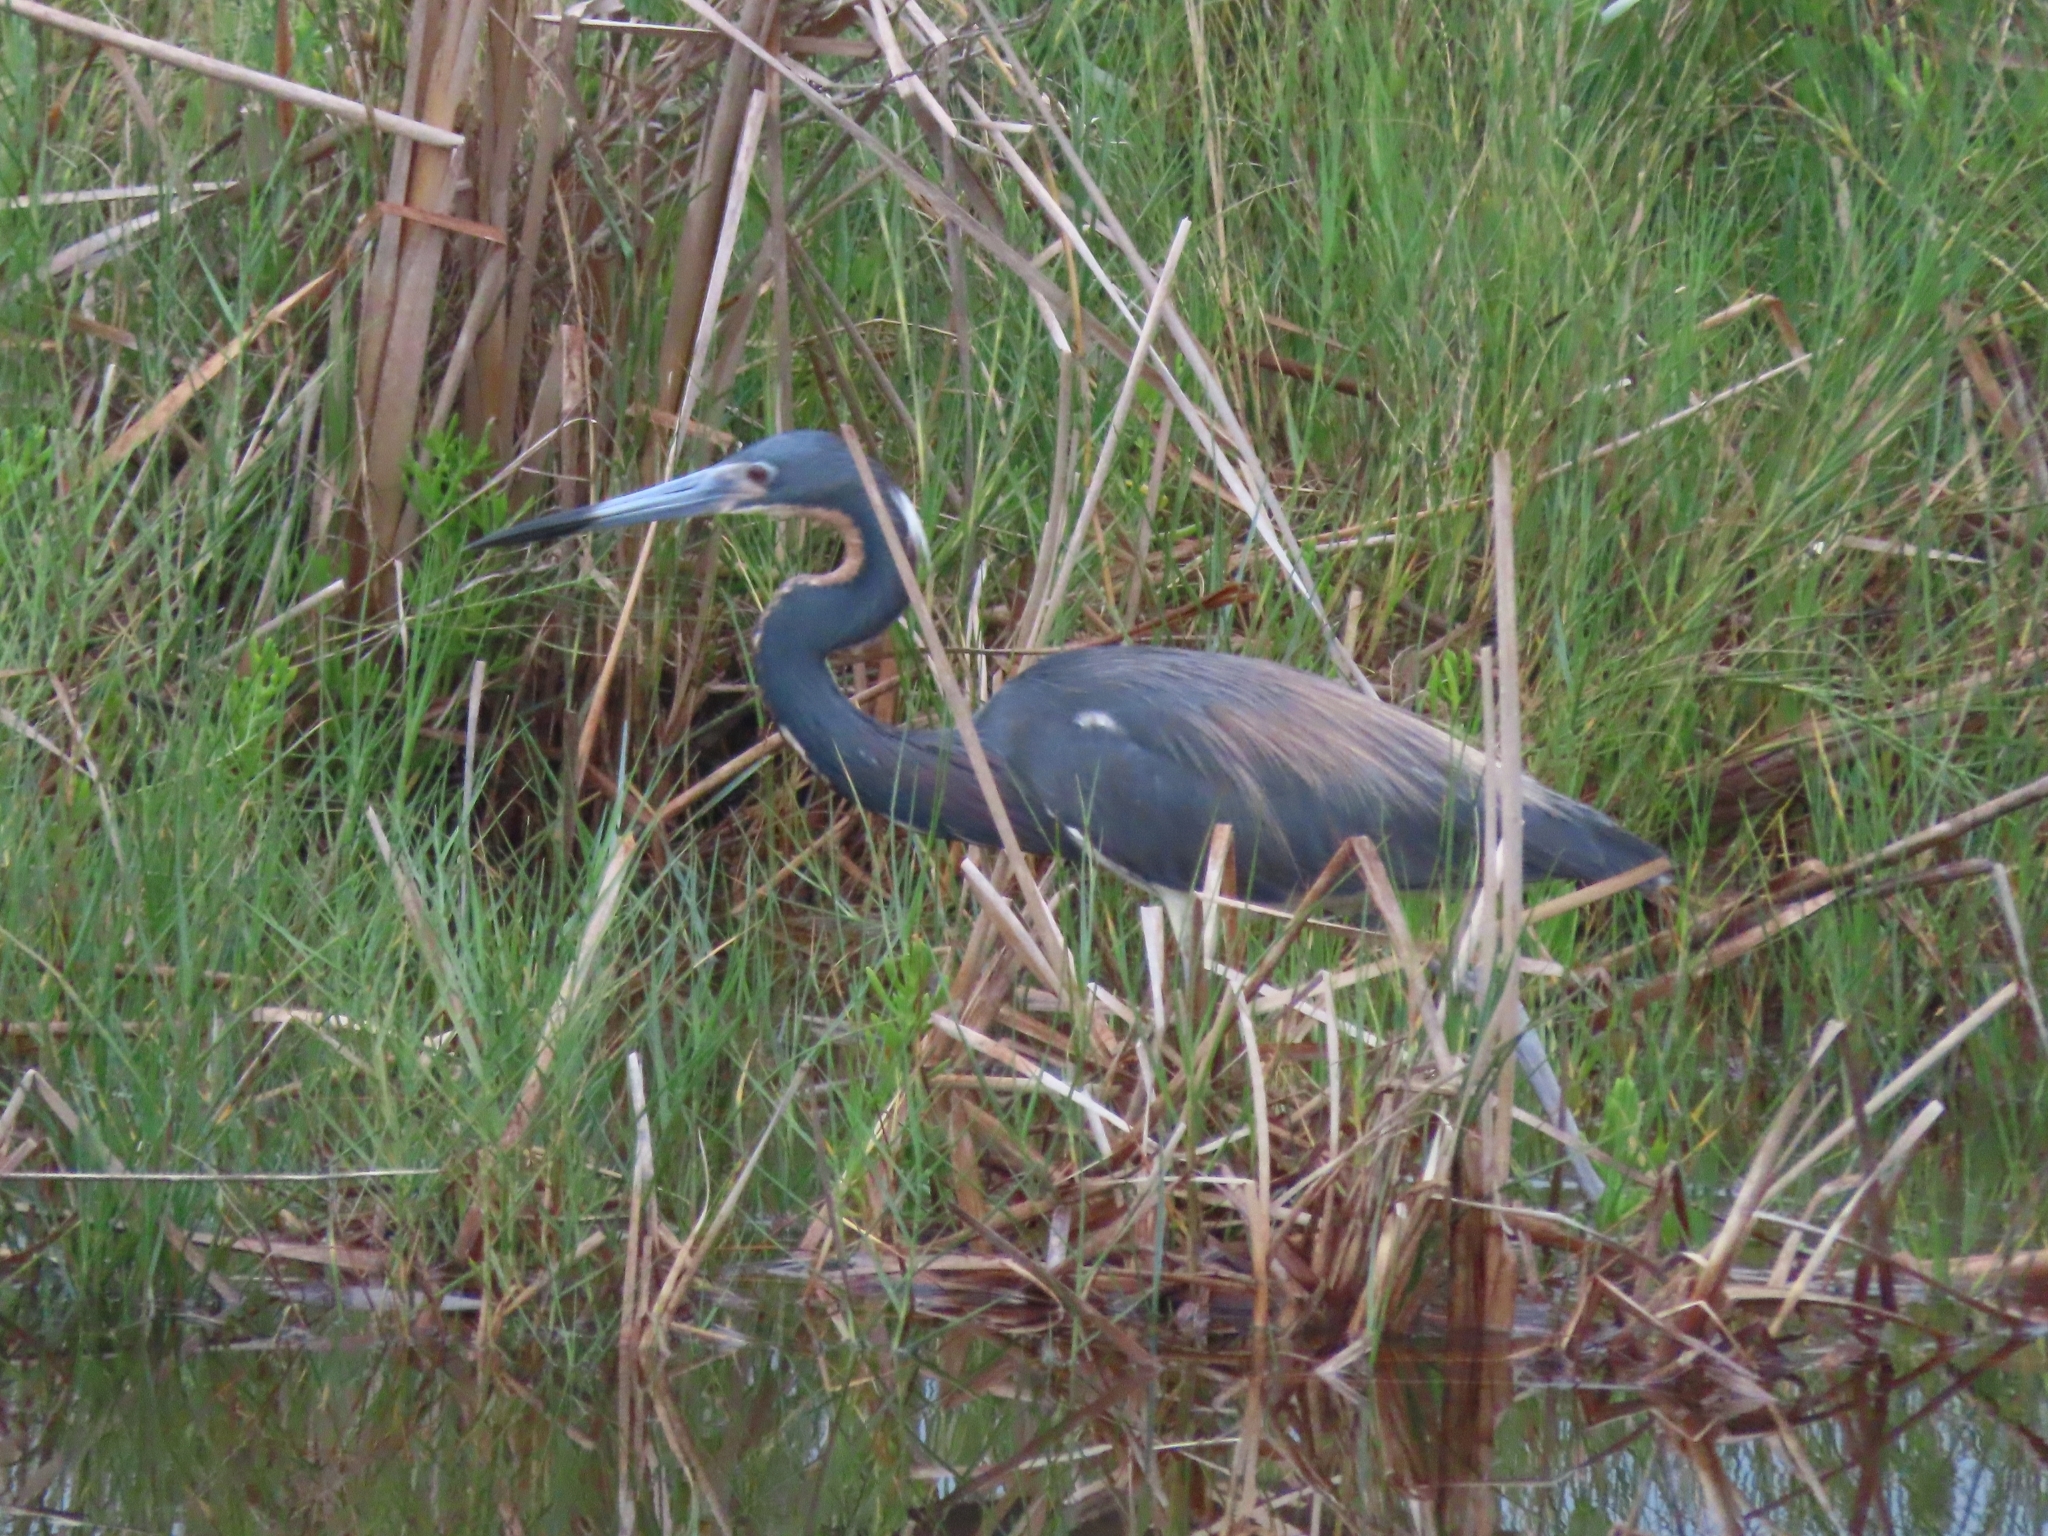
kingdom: Animalia
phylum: Chordata
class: Aves
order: Pelecaniformes
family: Ardeidae
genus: Egretta
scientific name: Egretta tricolor
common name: Tricolored heron
